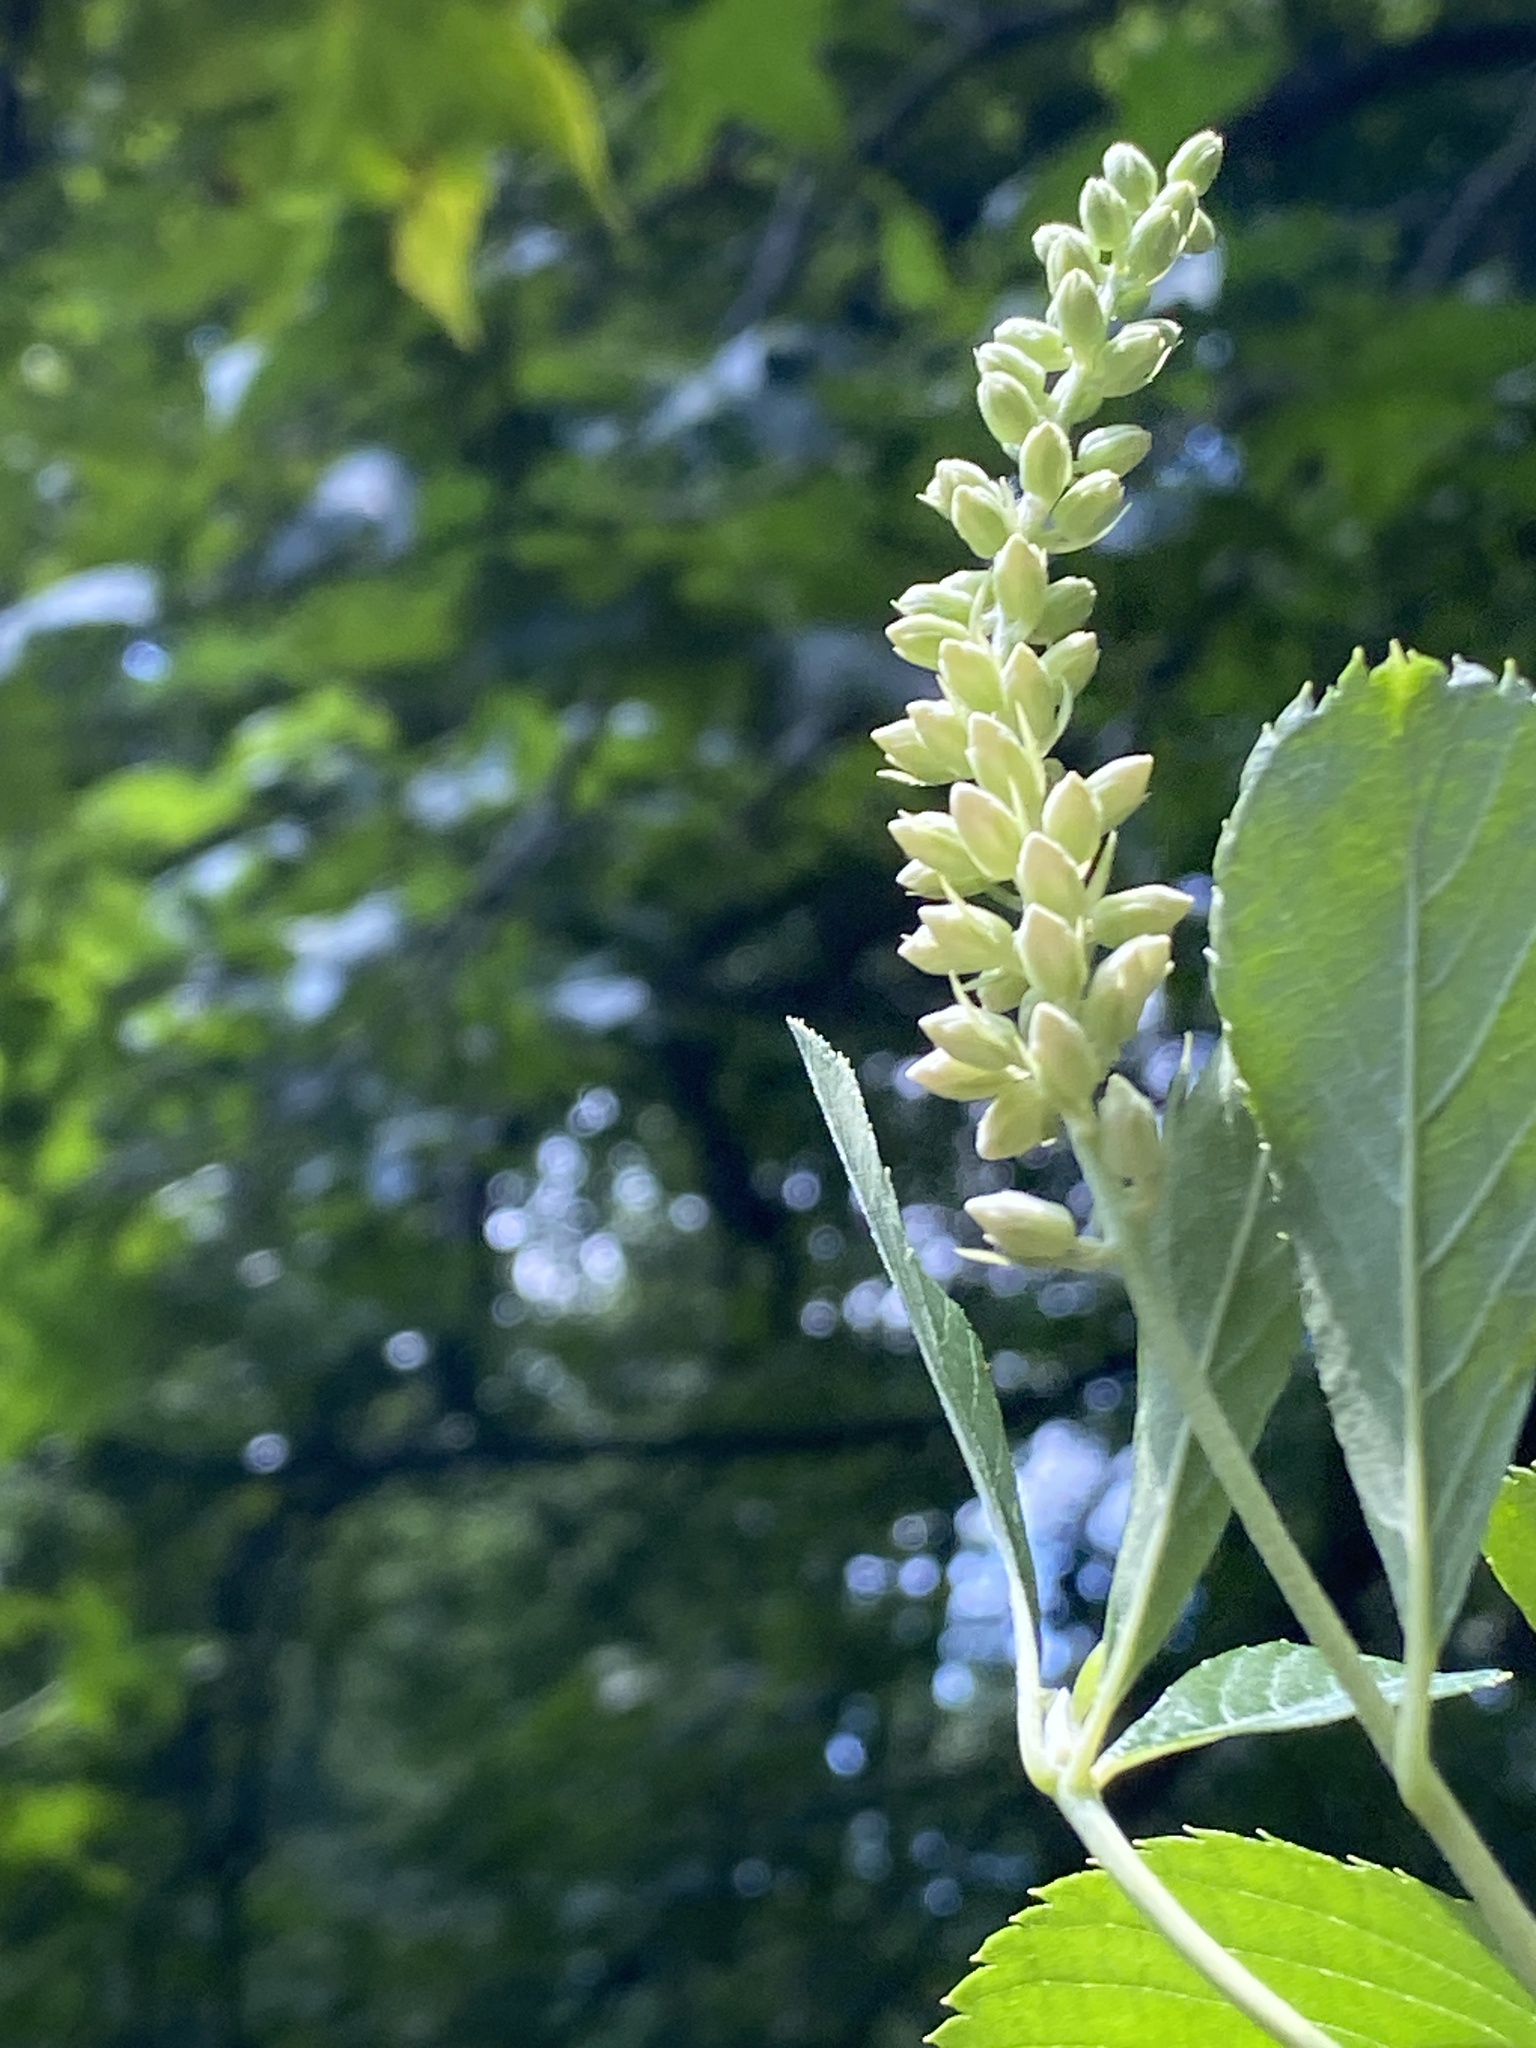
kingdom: Plantae
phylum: Tracheophyta
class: Magnoliopsida
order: Ericales
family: Clethraceae
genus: Clethra
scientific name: Clethra alnifolia
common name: Sweet pepperbush
